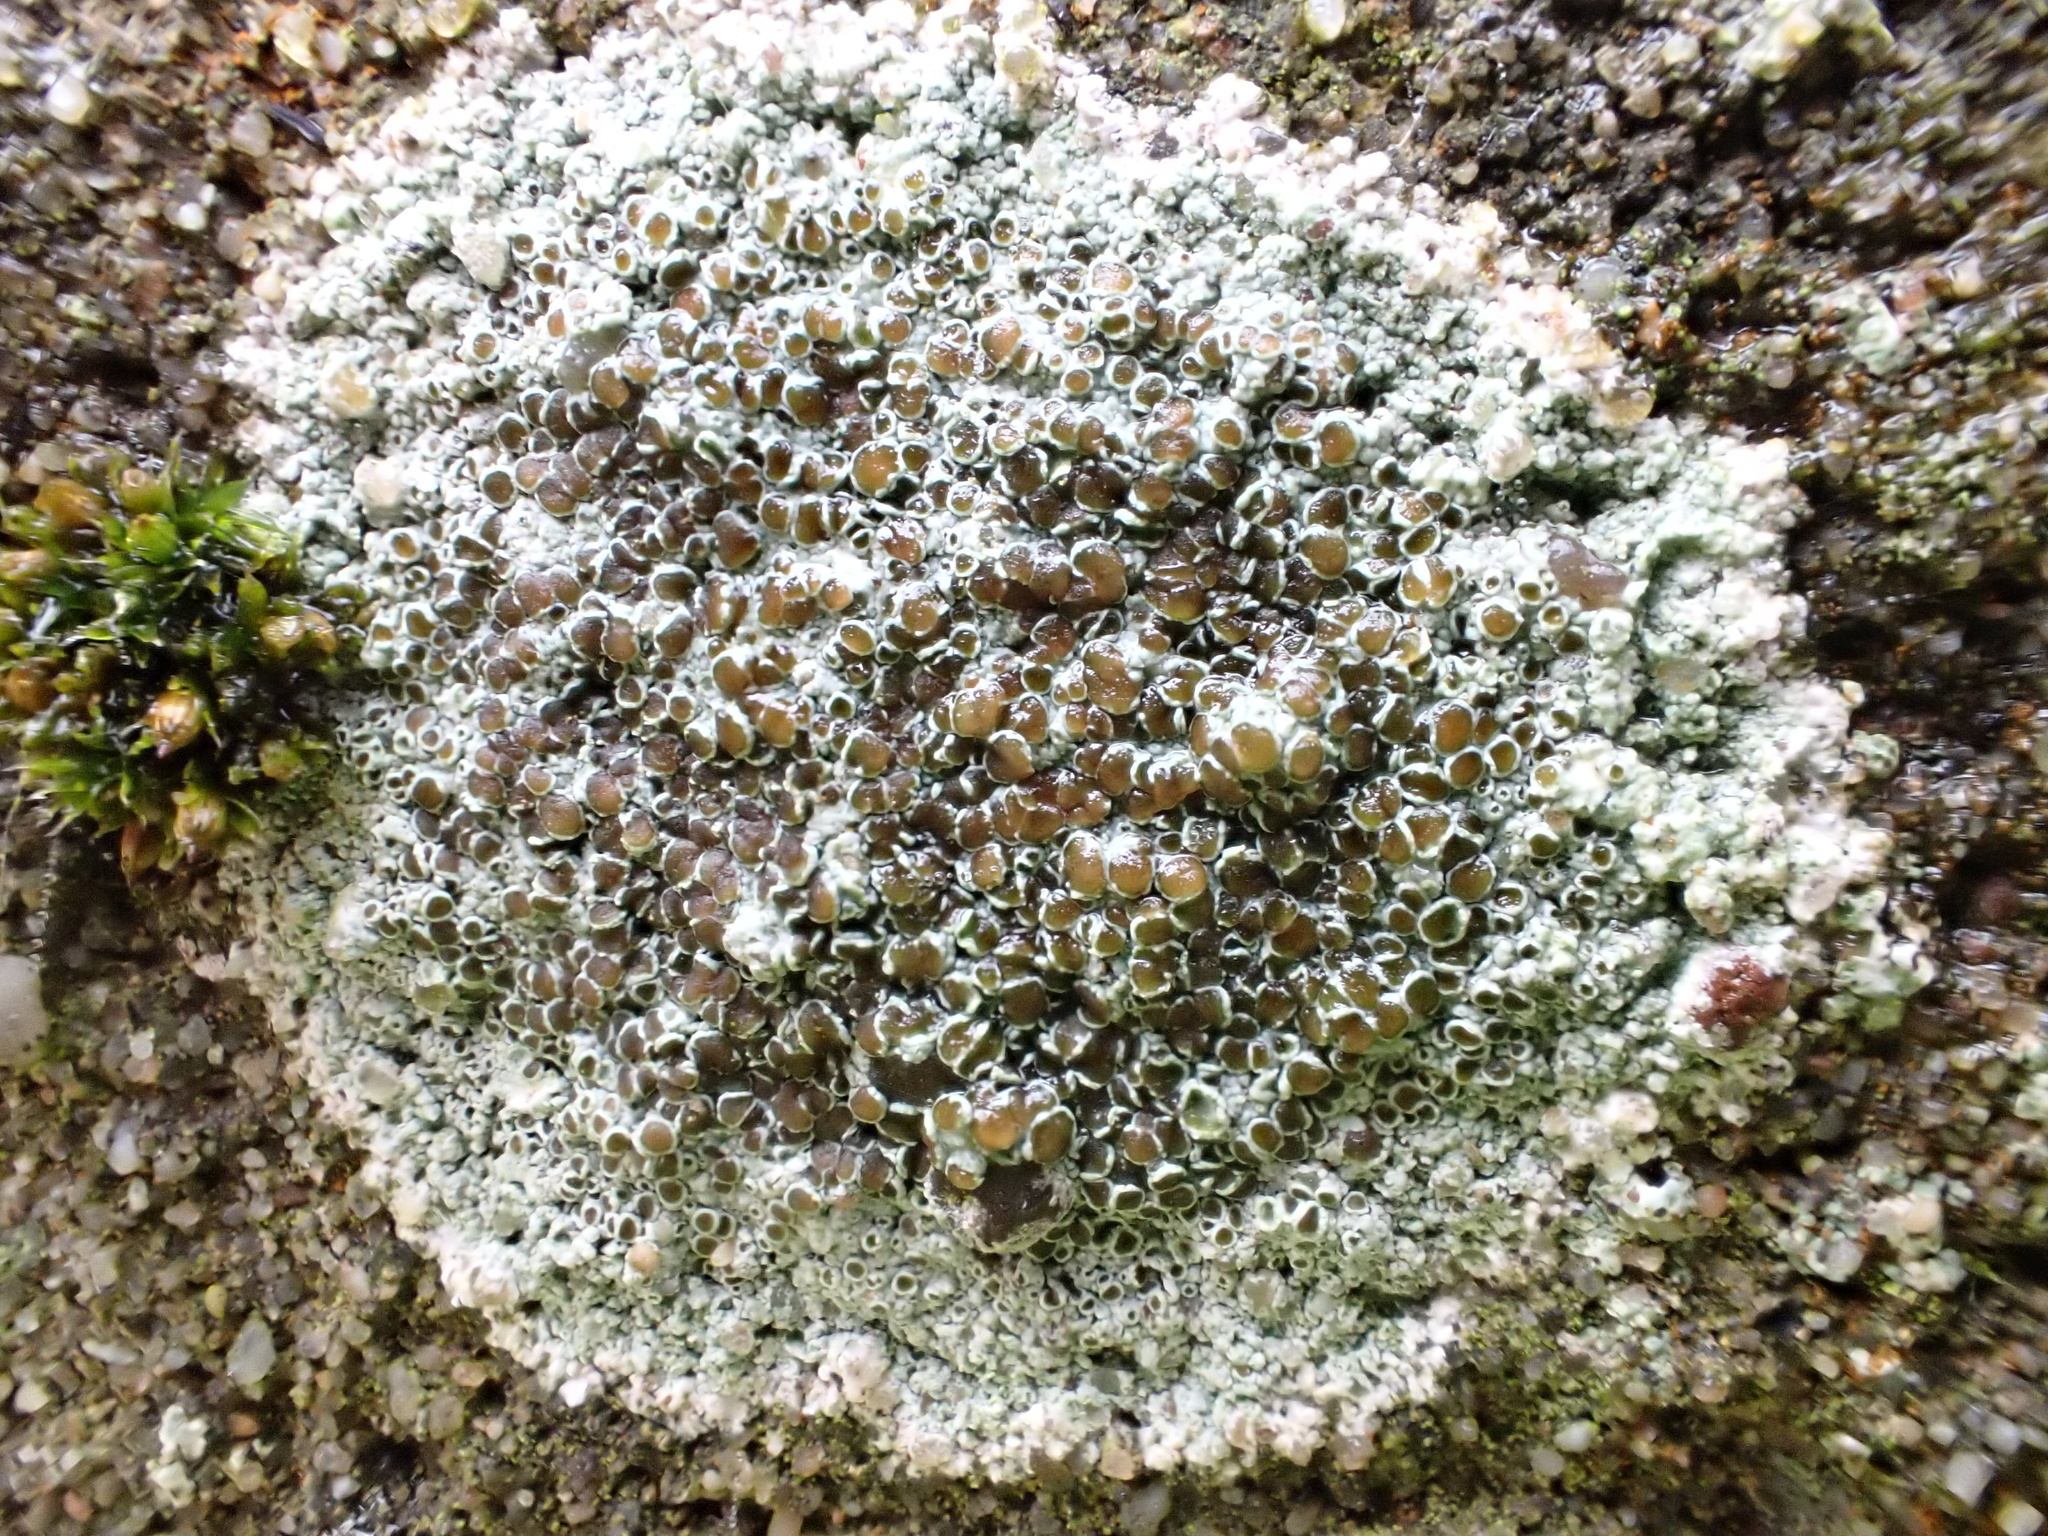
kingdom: Fungi
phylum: Ascomycota
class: Lecanoromycetes
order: Lecanorales
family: Lecanoraceae
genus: Lecanora
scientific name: Lecanora campestris
